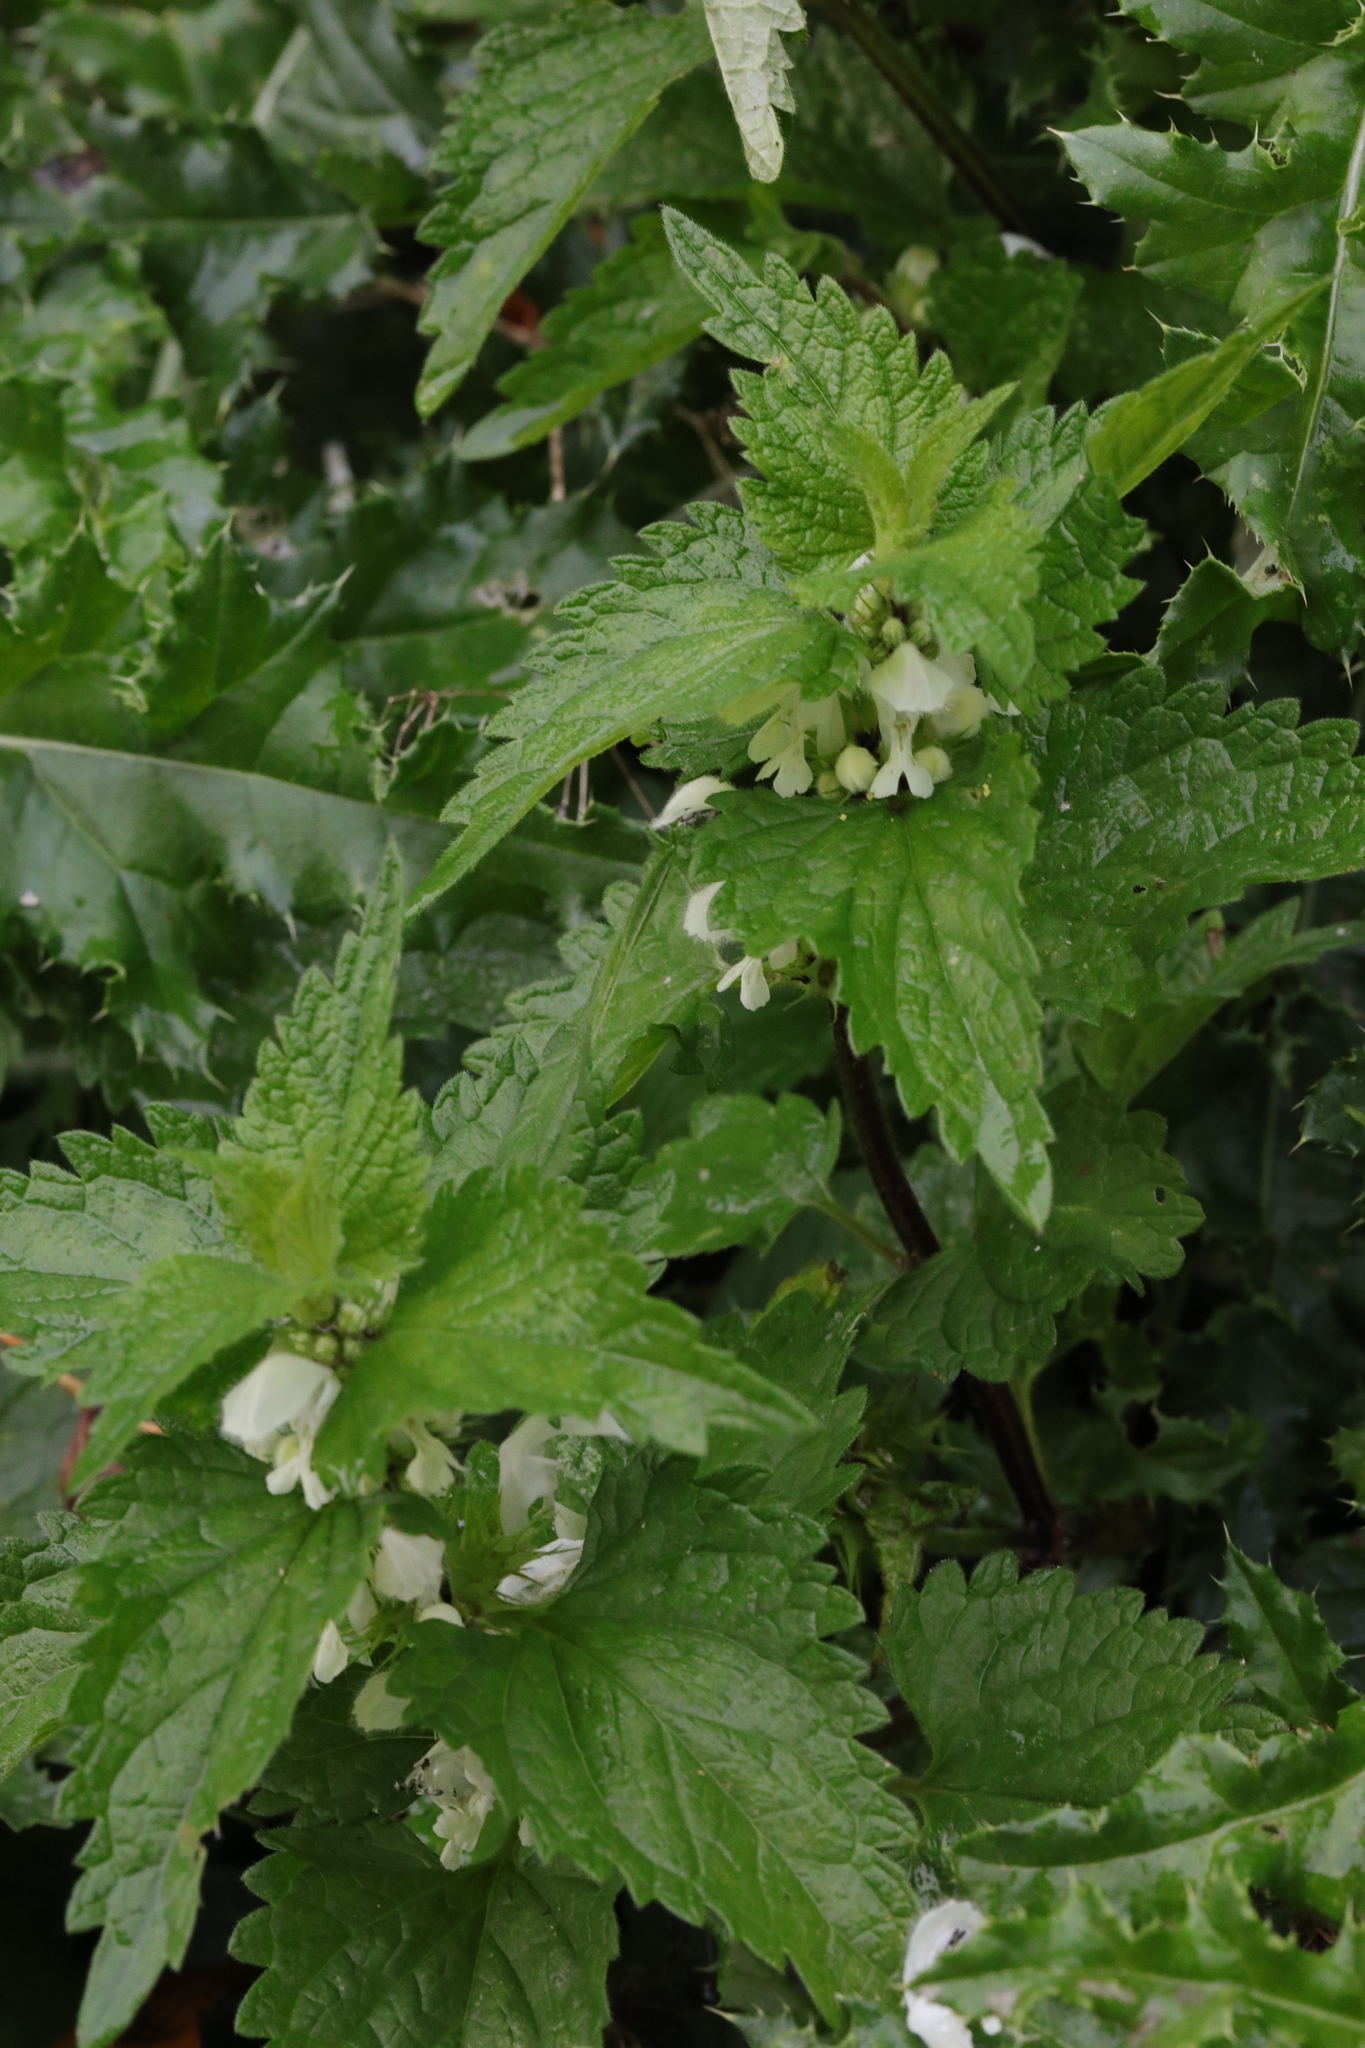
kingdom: Plantae
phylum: Tracheophyta
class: Magnoliopsida
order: Lamiales
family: Lamiaceae
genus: Lamium
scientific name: Lamium album
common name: White dead-nettle
